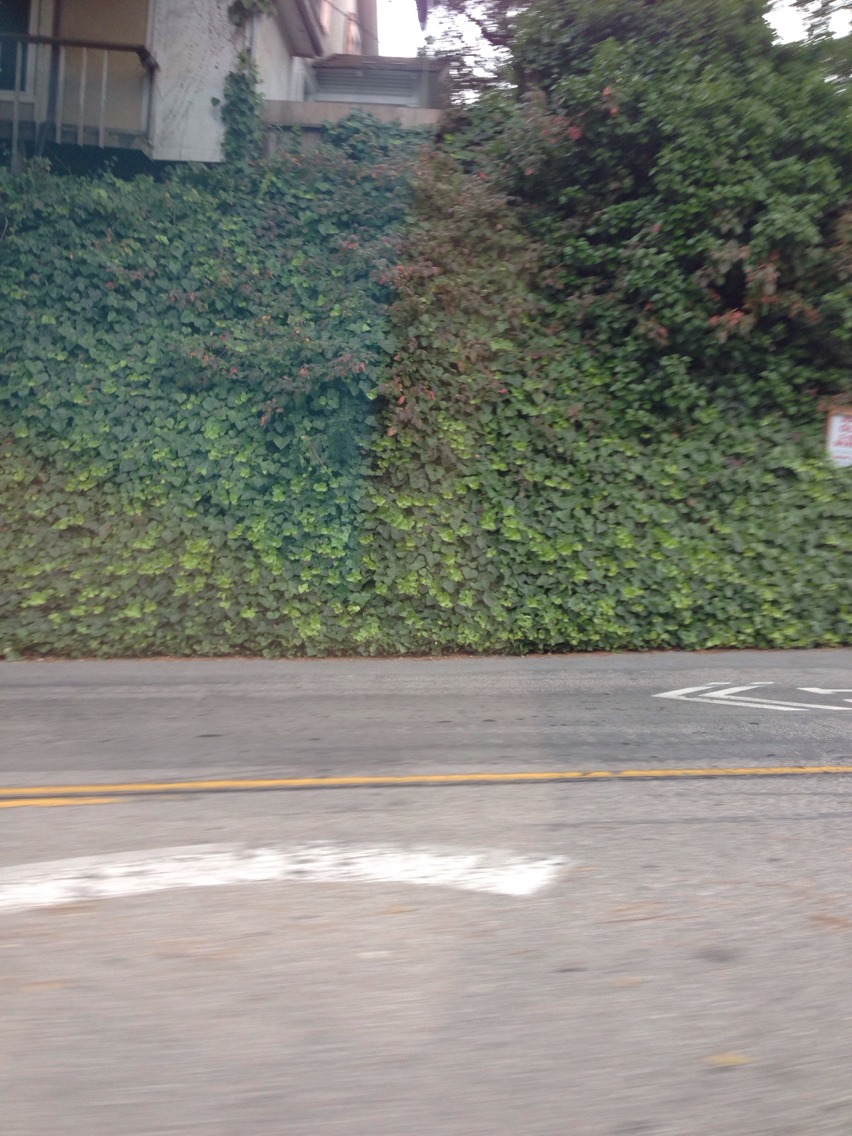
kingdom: Plantae
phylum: Tracheophyta
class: Magnoliopsida
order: Apiales
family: Araliaceae
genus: Hedera
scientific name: Hedera helix
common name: Ivy
